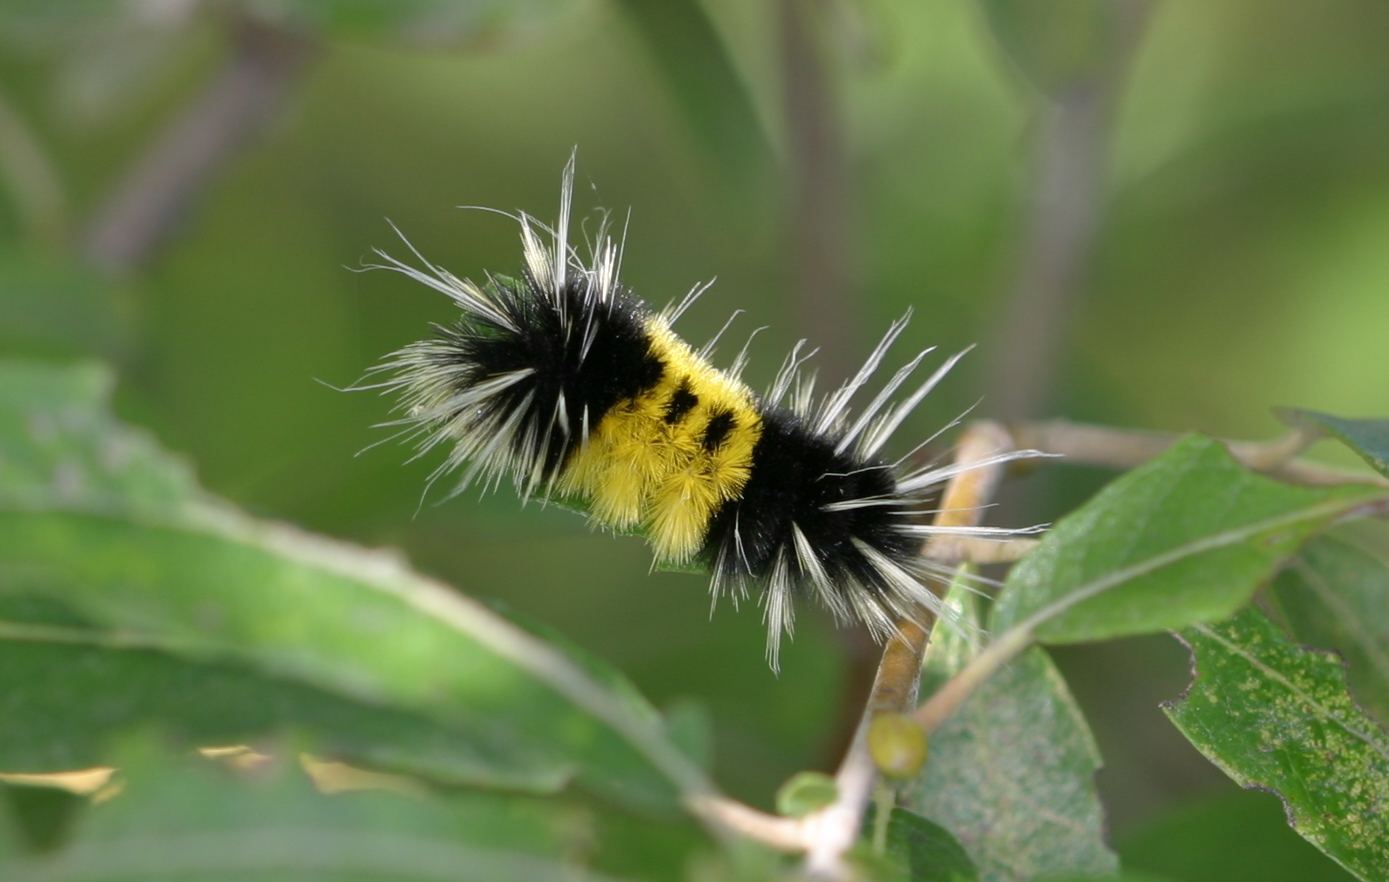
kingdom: Animalia
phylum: Arthropoda
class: Insecta
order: Lepidoptera
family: Erebidae
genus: Lophocampa
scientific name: Lophocampa maculata
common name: Spotted tussock moth
